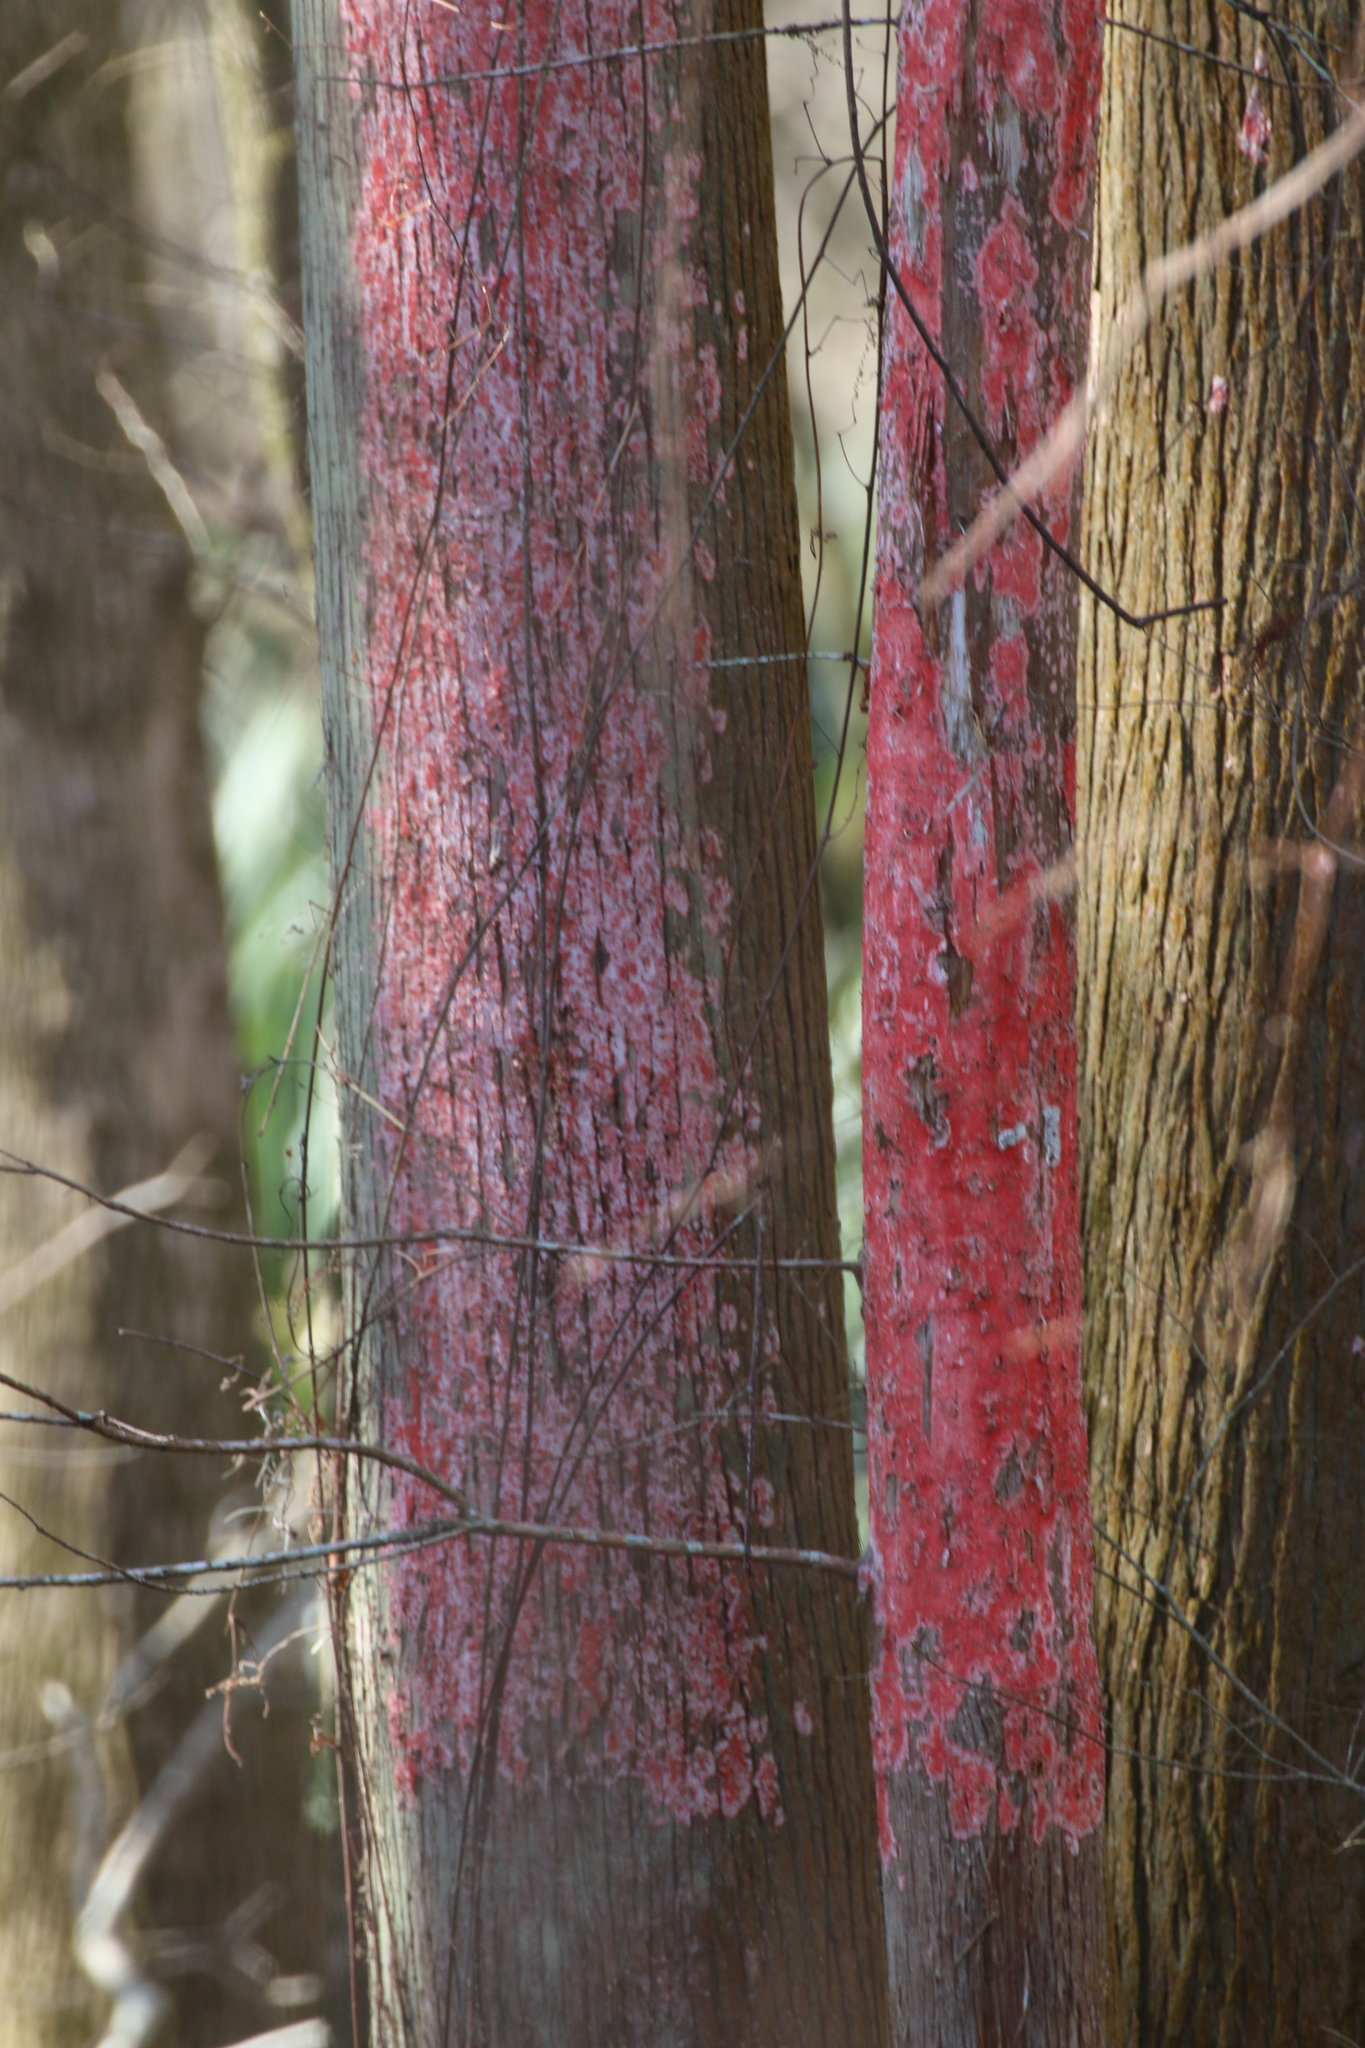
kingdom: Fungi
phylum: Ascomycota
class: Arthoniomycetes
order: Arthoniales
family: Arthoniaceae
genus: Herpothallon
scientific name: Herpothallon rubrocinctum
